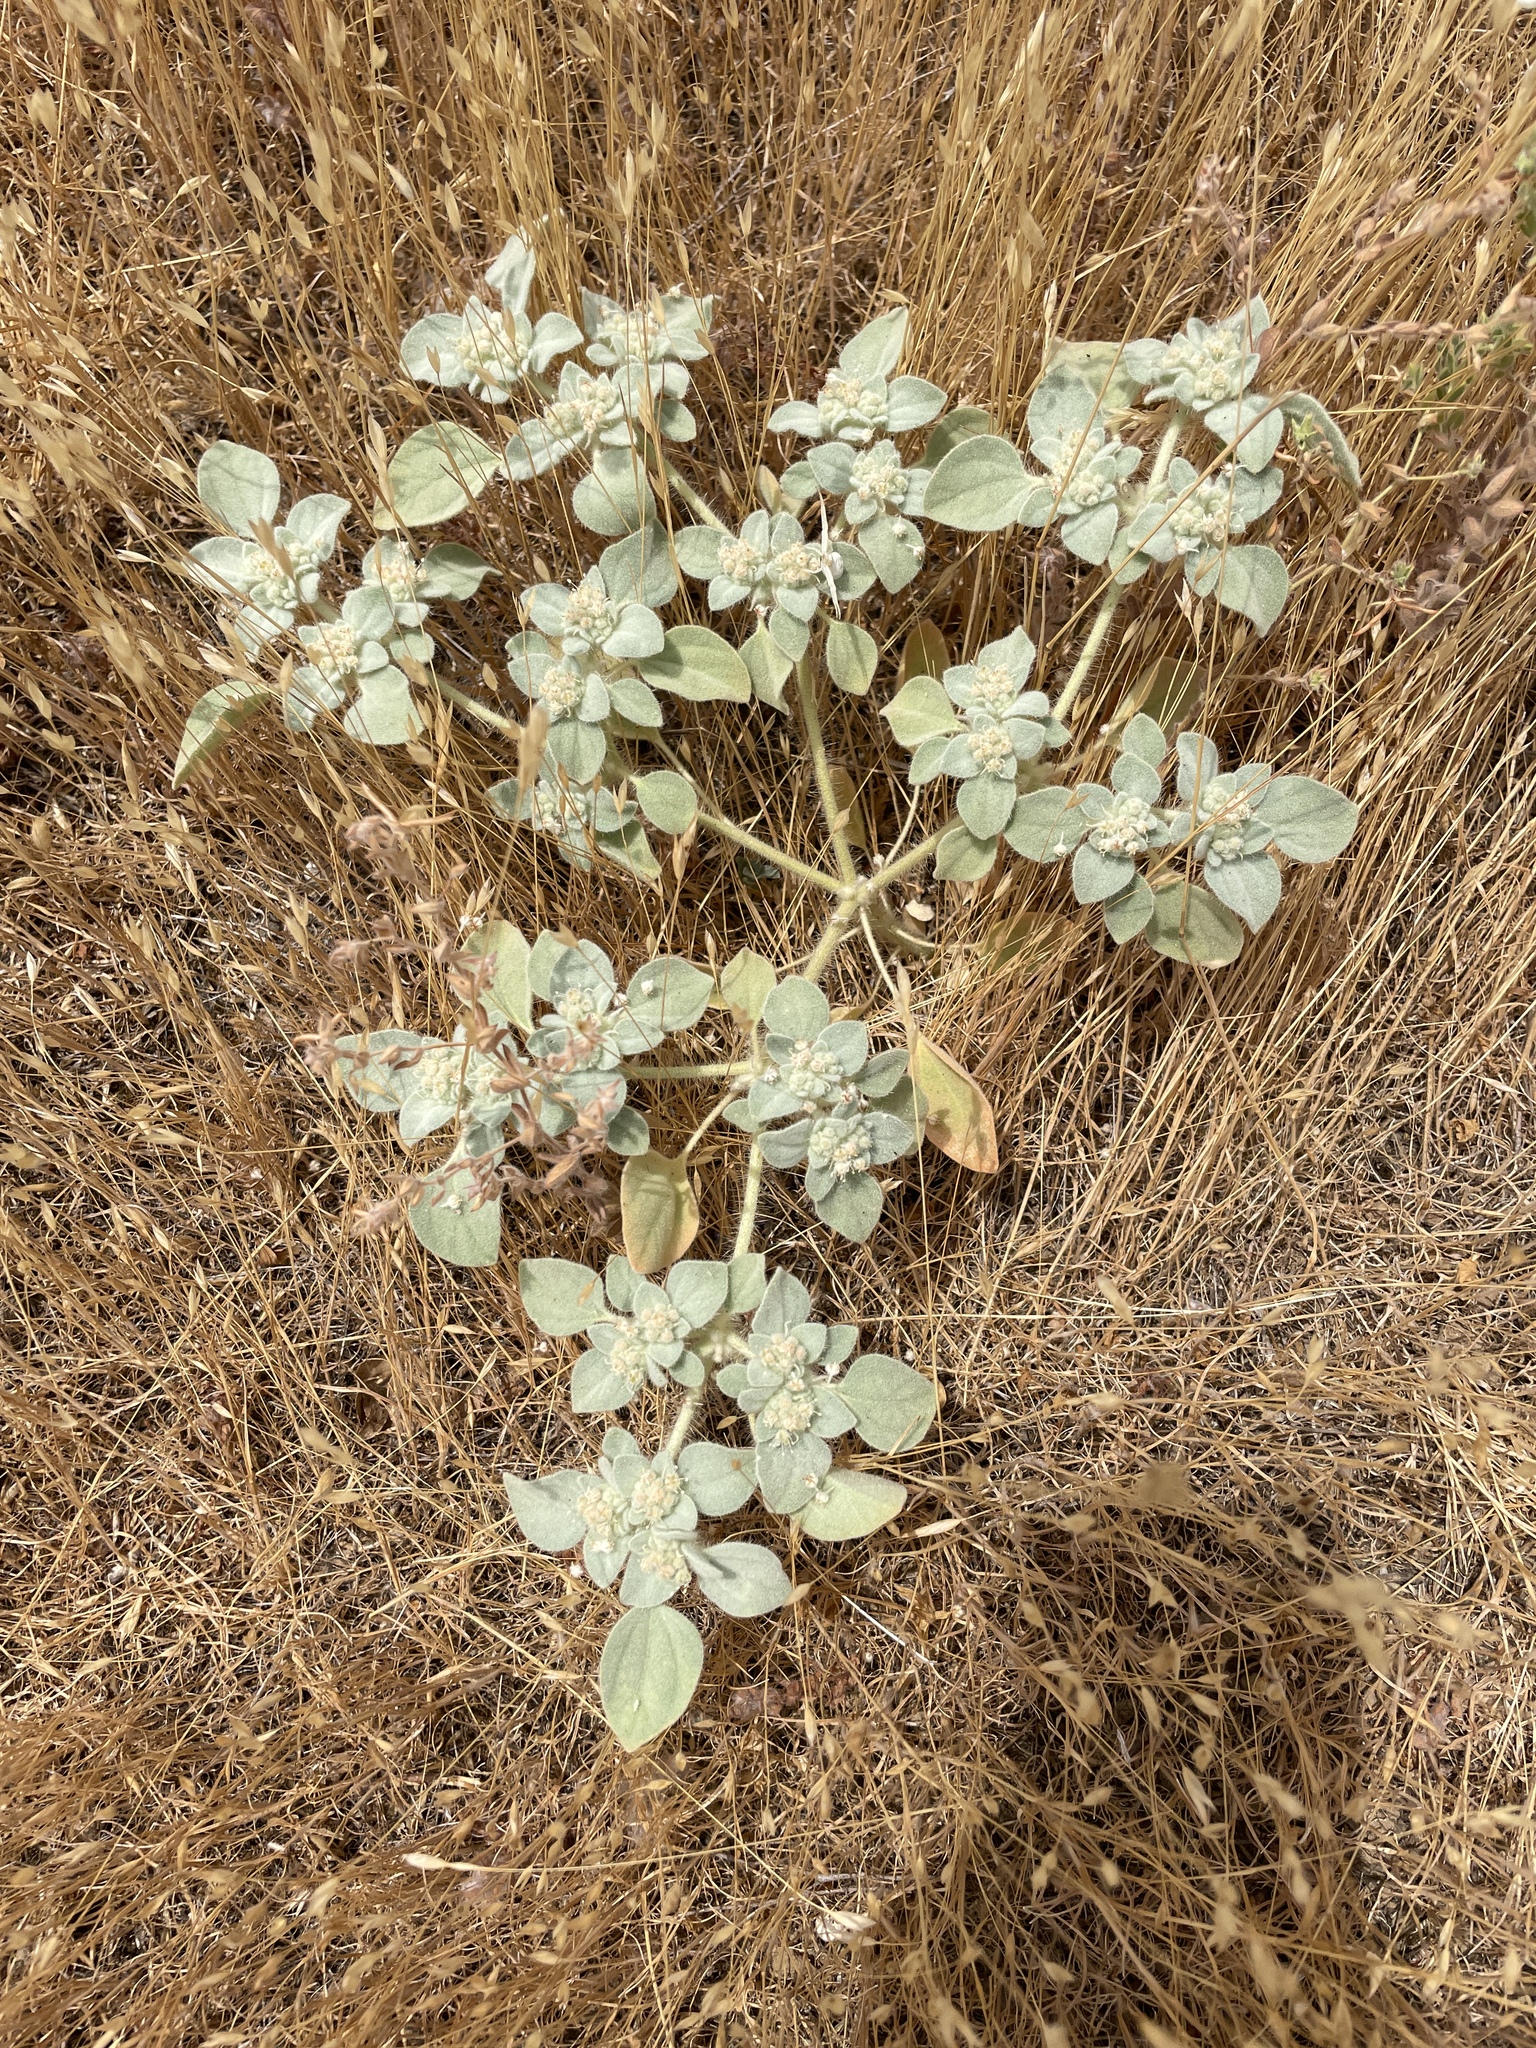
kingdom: Plantae
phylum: Tracheophyta
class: Magnoliopsida
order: Malpighiales
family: Euphorbiaceae
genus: Croton
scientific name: Croton setiger
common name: Dove weed
